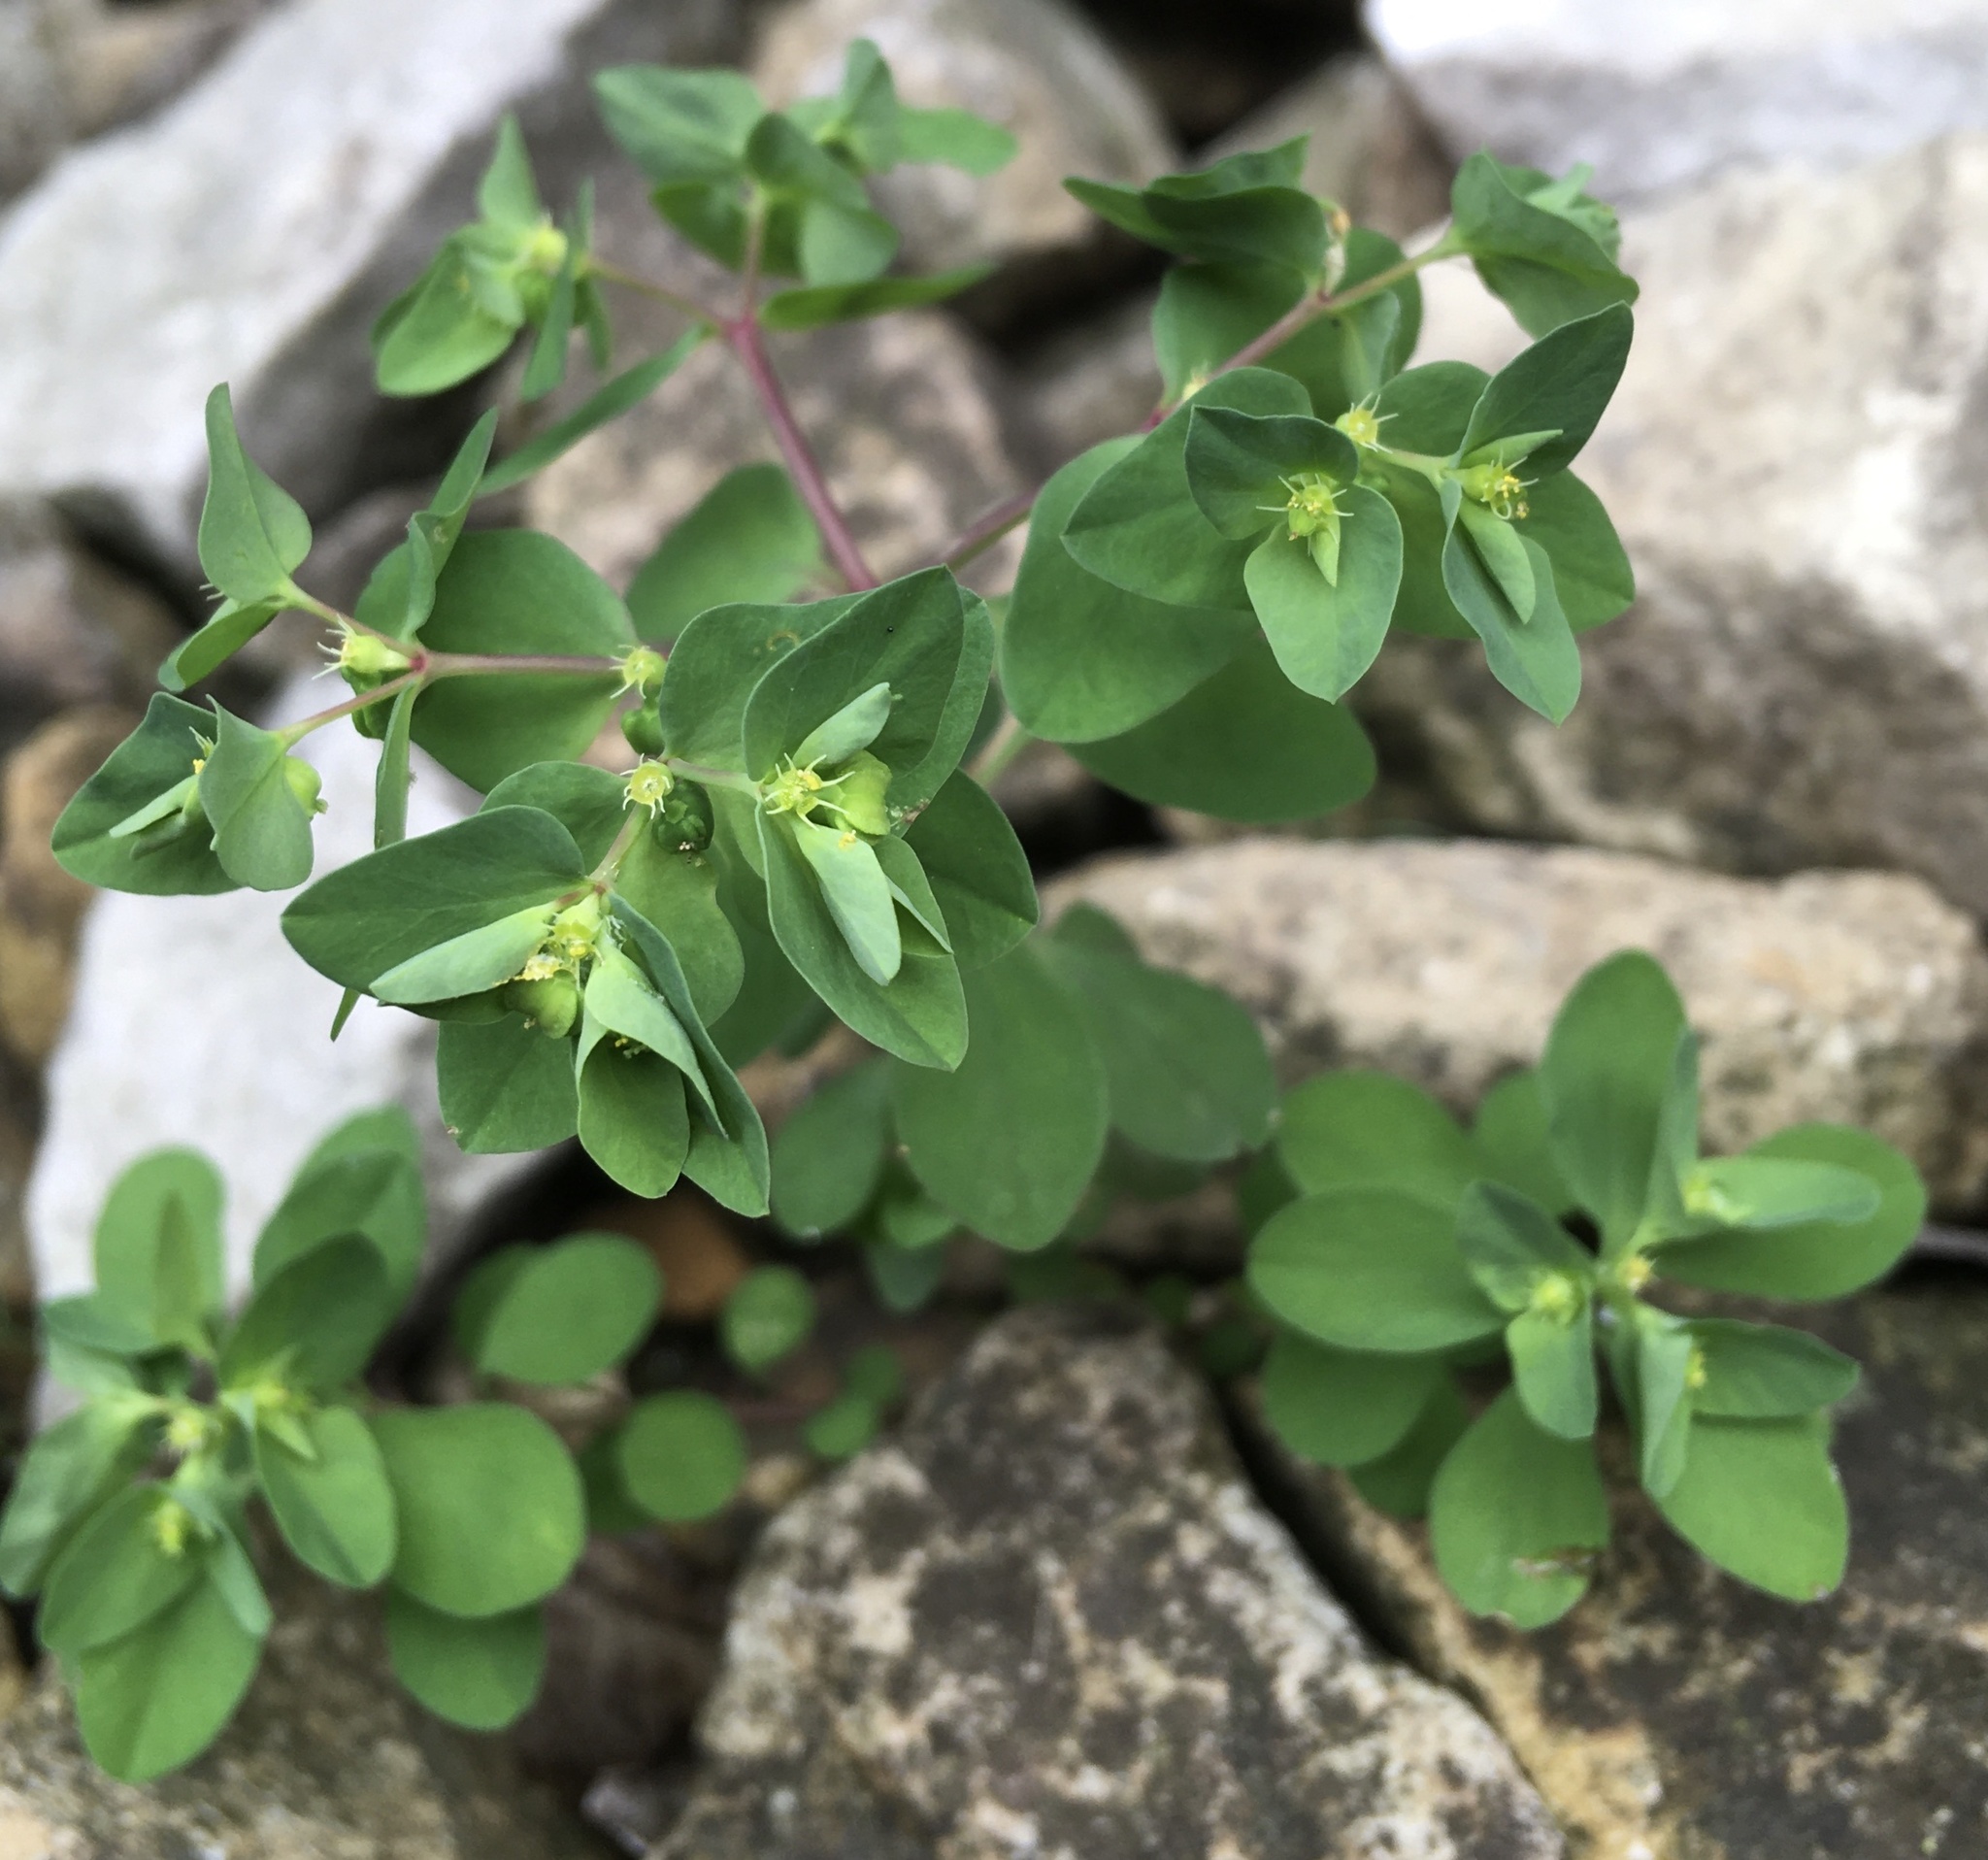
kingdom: Plantae
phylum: Tracheophyta
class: Magnoliopsida
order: Malpighiales
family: Euphorbiaceae
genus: Euphorbia
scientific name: Euphorbia peplus
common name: Petty spurge
